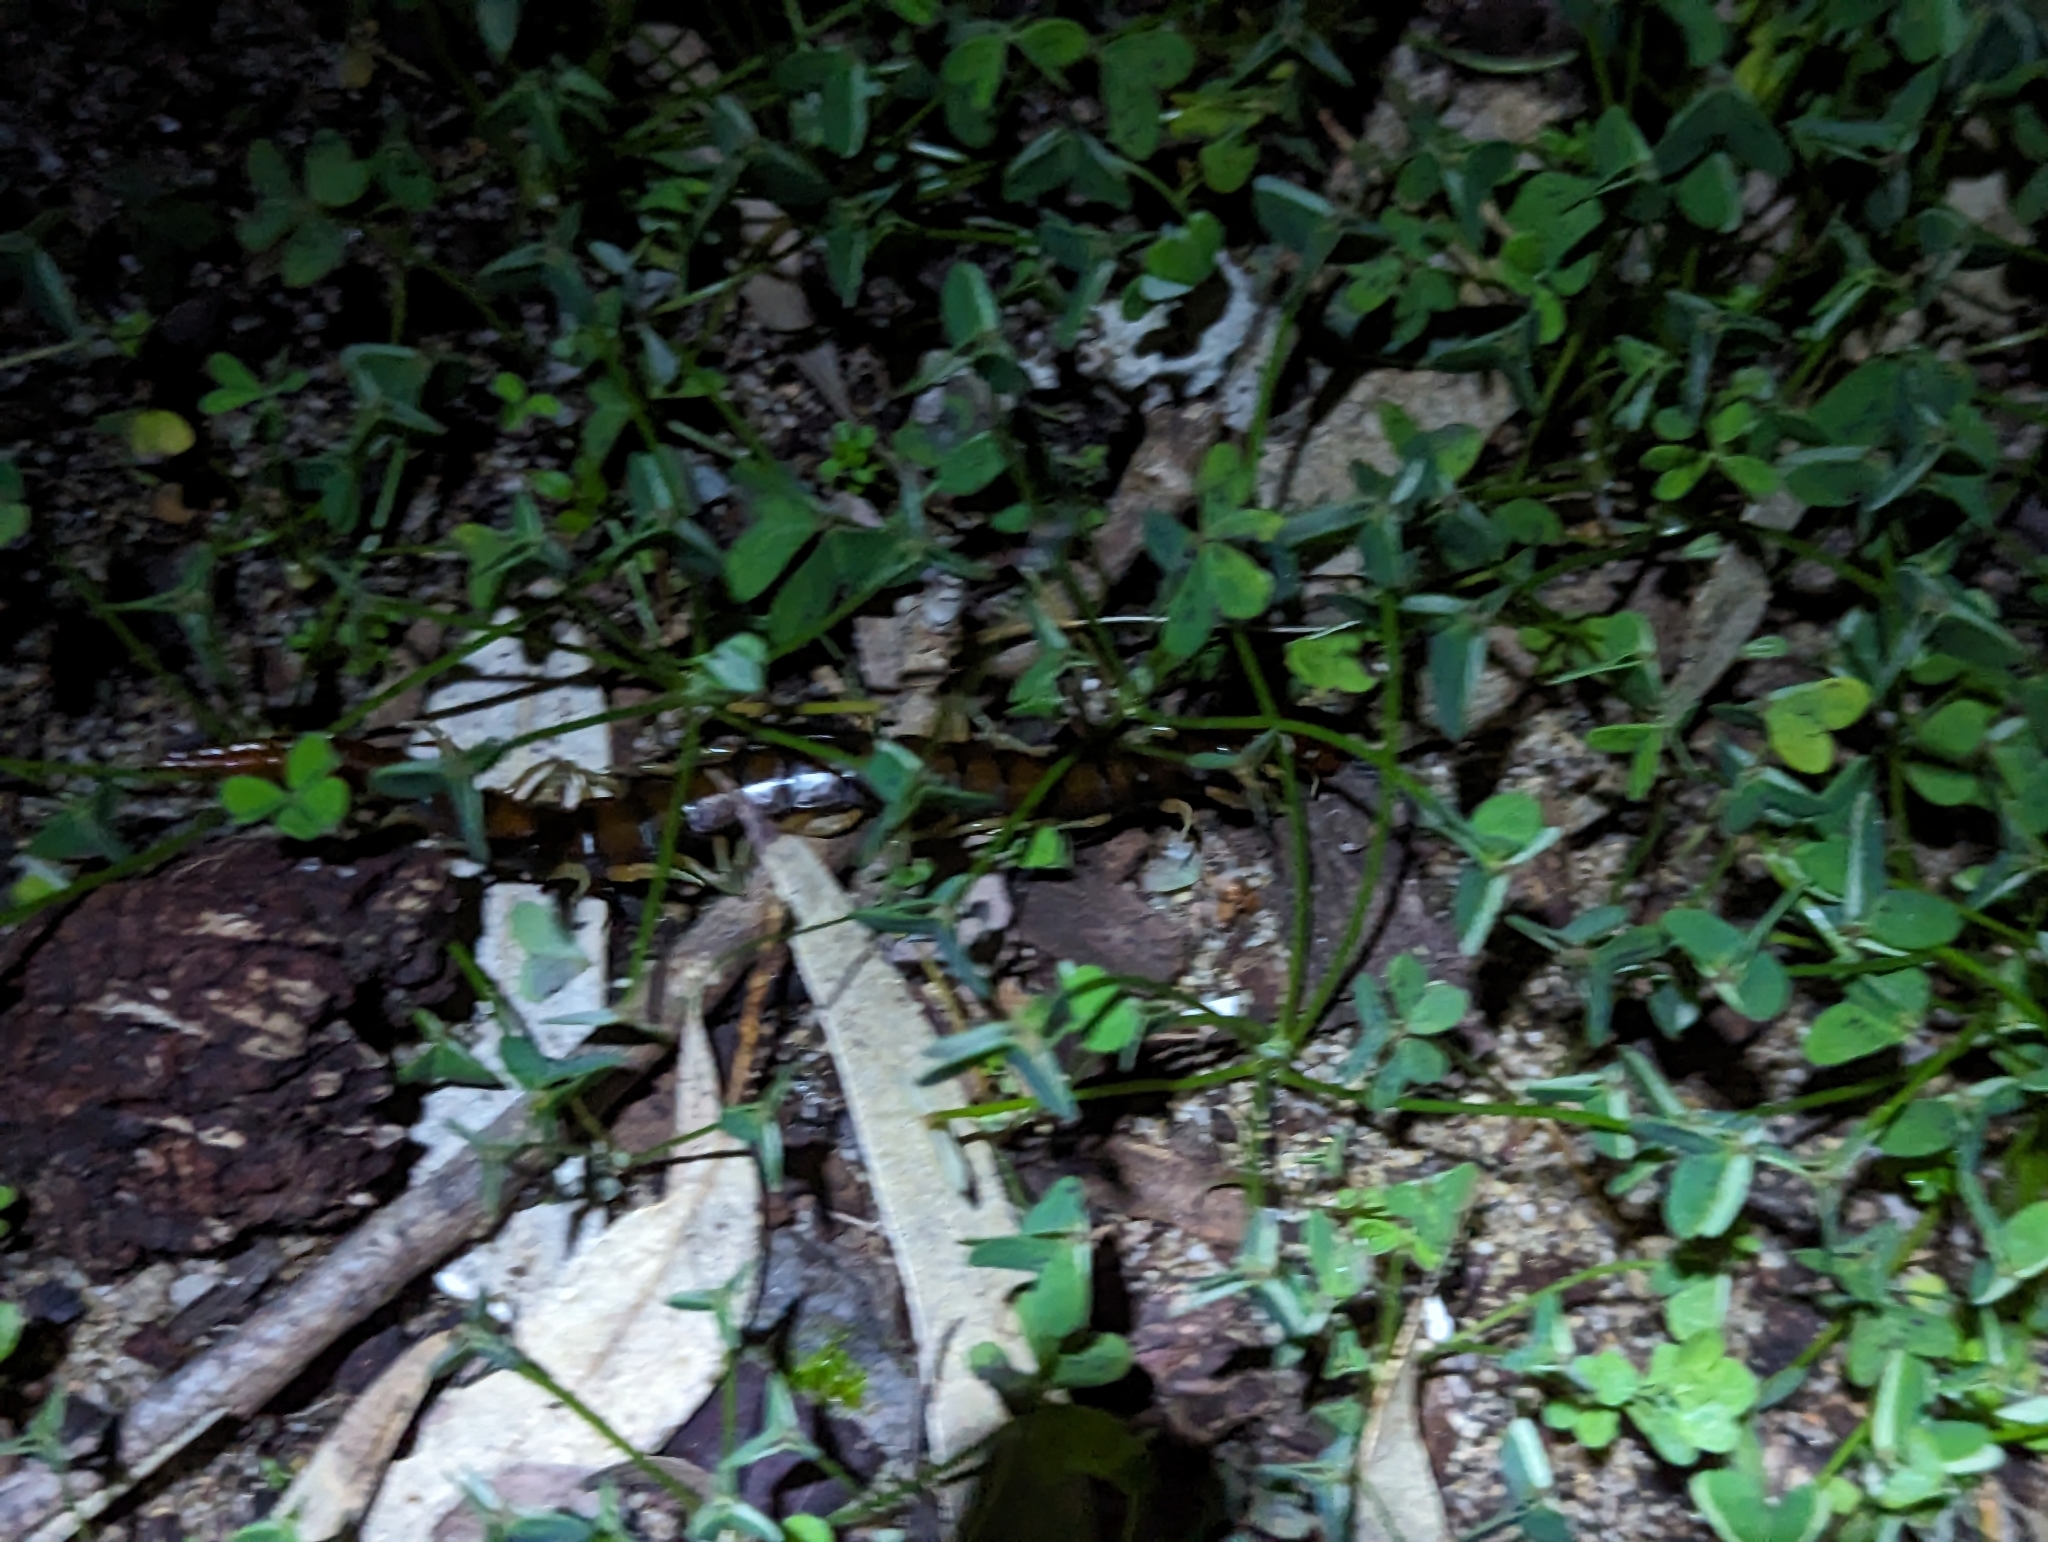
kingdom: Animalia
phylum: Arthropoda
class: Chilopoda
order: Scolopendromorpha
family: Scolopendridae
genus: Cormocephalus
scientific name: Cormocephalus aurantiipes
